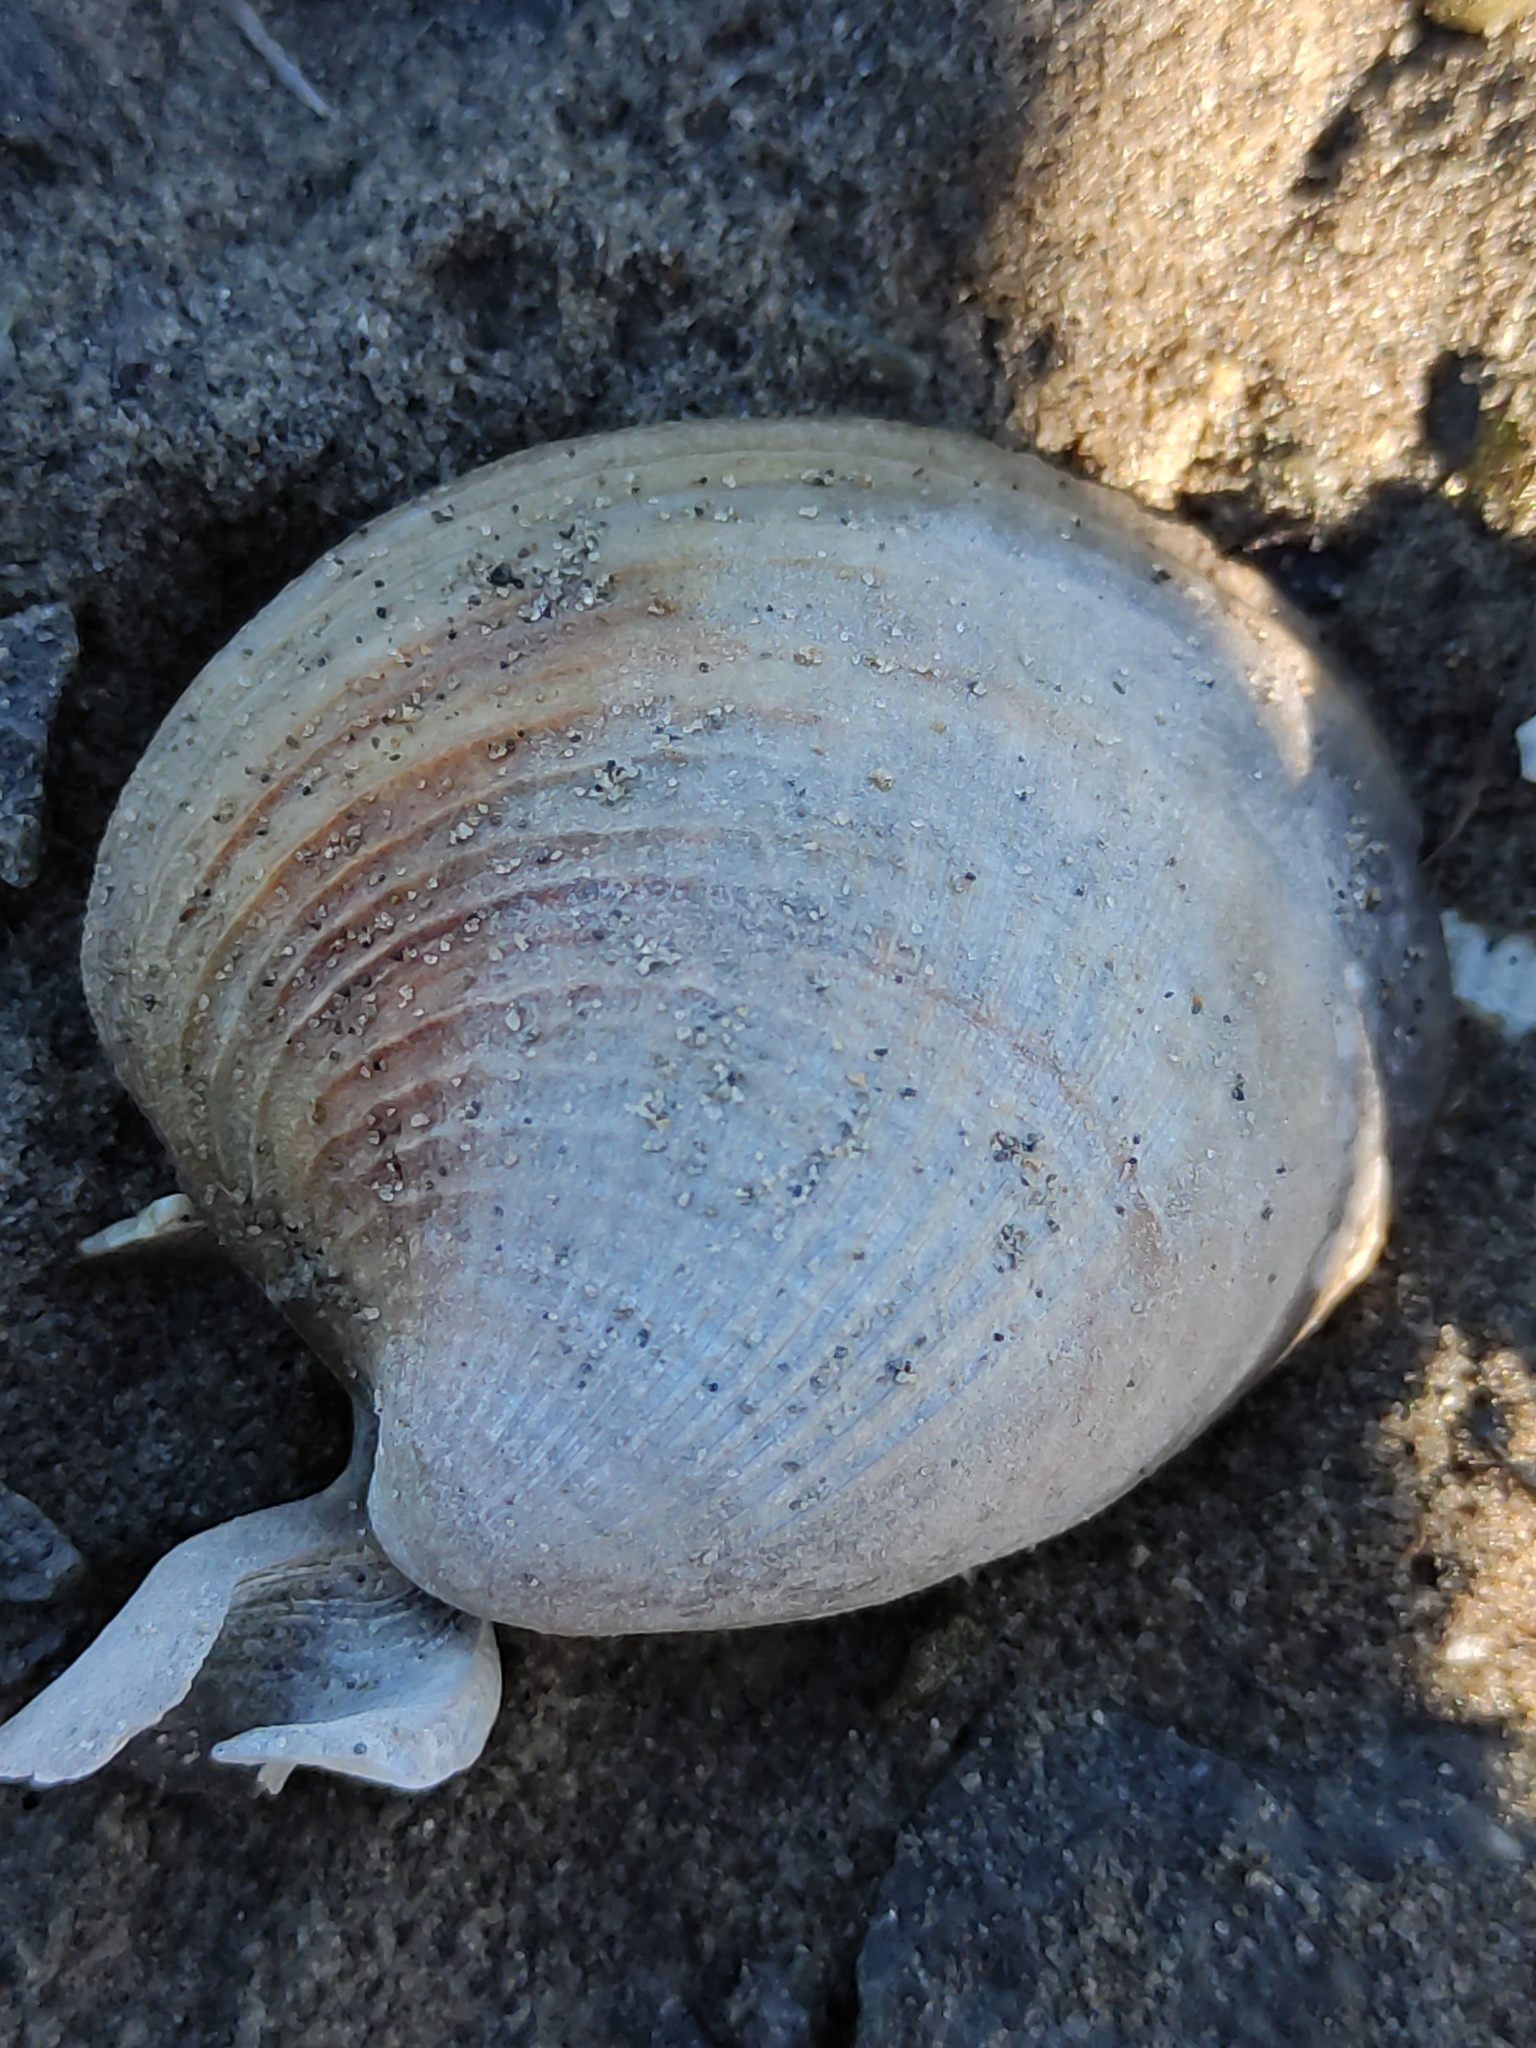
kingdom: Animalia
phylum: Mollusca
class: Bivalvia
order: Venerida
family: Veneridae
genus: Austrovenus
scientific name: Austrovenus stutchburyi
